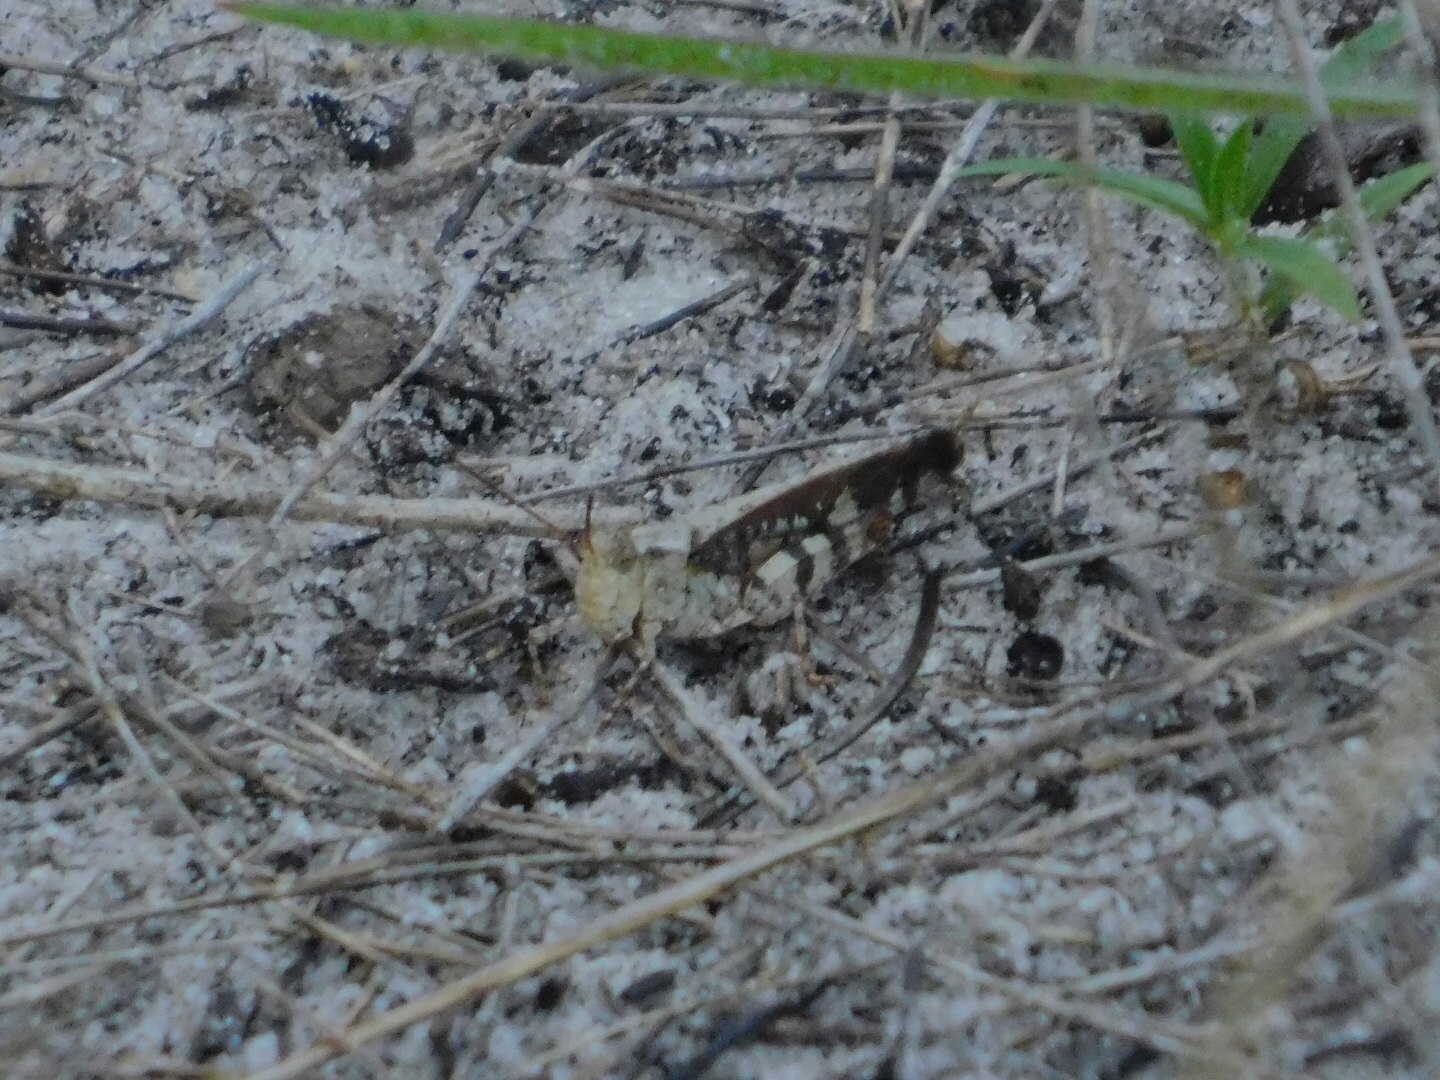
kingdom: Animalia
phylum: Arthropoda
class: Insecta
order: Orthoptera
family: Acrididae
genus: Spharagemon
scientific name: Spharagemon marmoratum
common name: Marbled grasshopper
